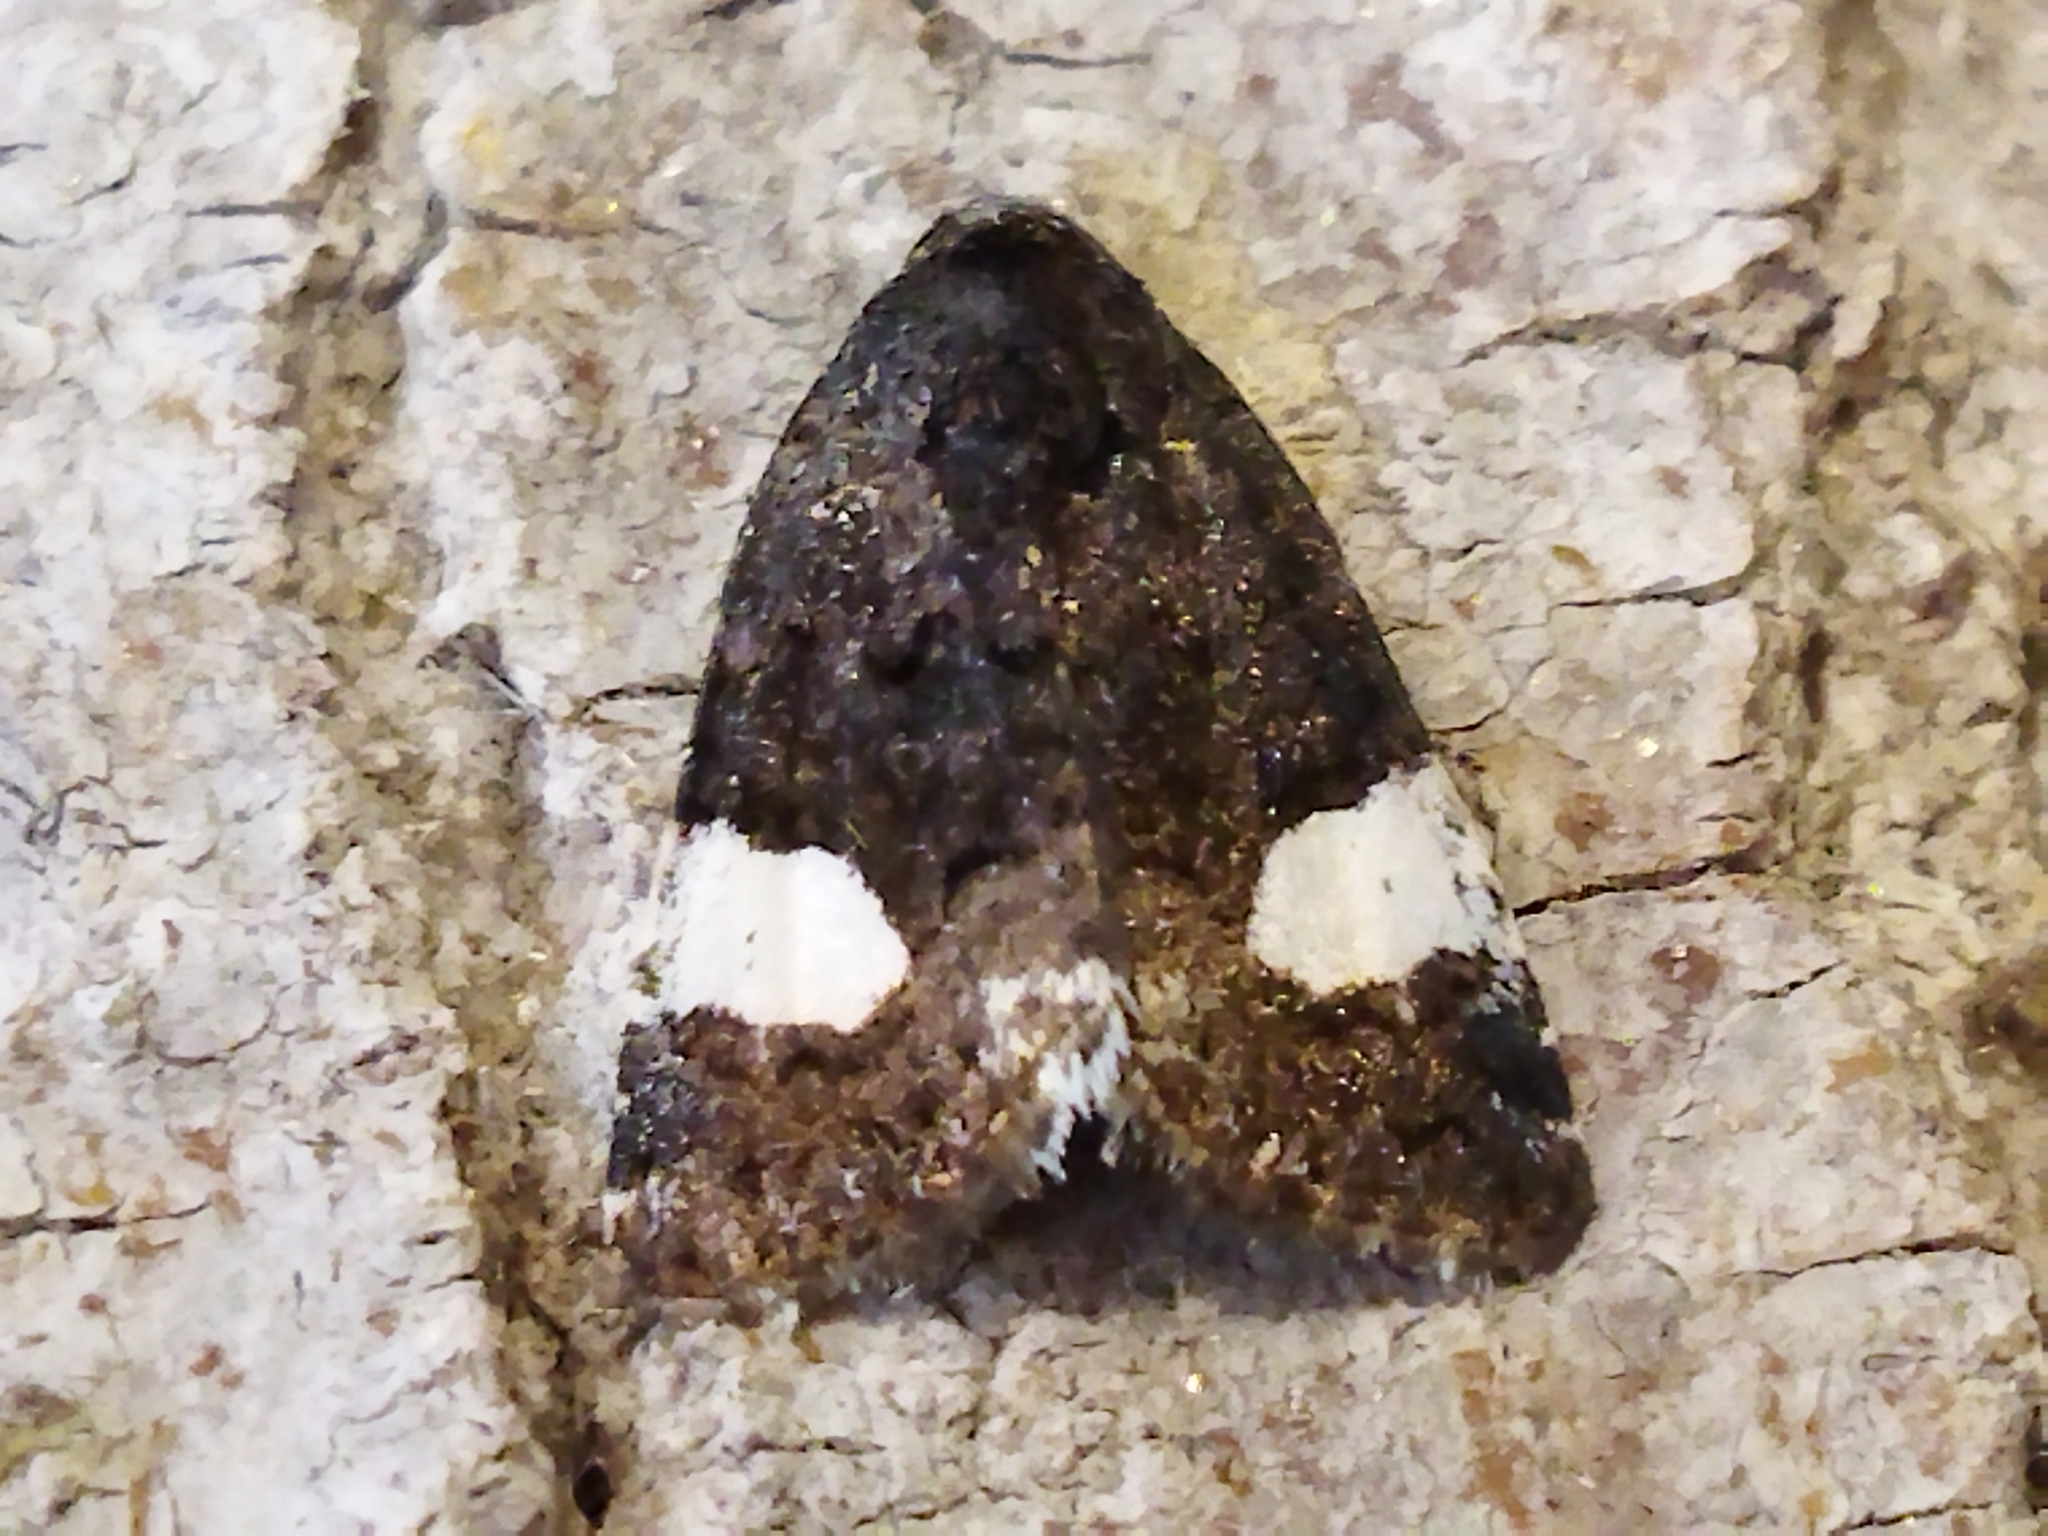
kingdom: Animalia
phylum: Arthropoda
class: Insecta
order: Lepidoptera
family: Erebidae
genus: Tyta
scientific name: Tyta luctuosa
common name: Four-spotted
